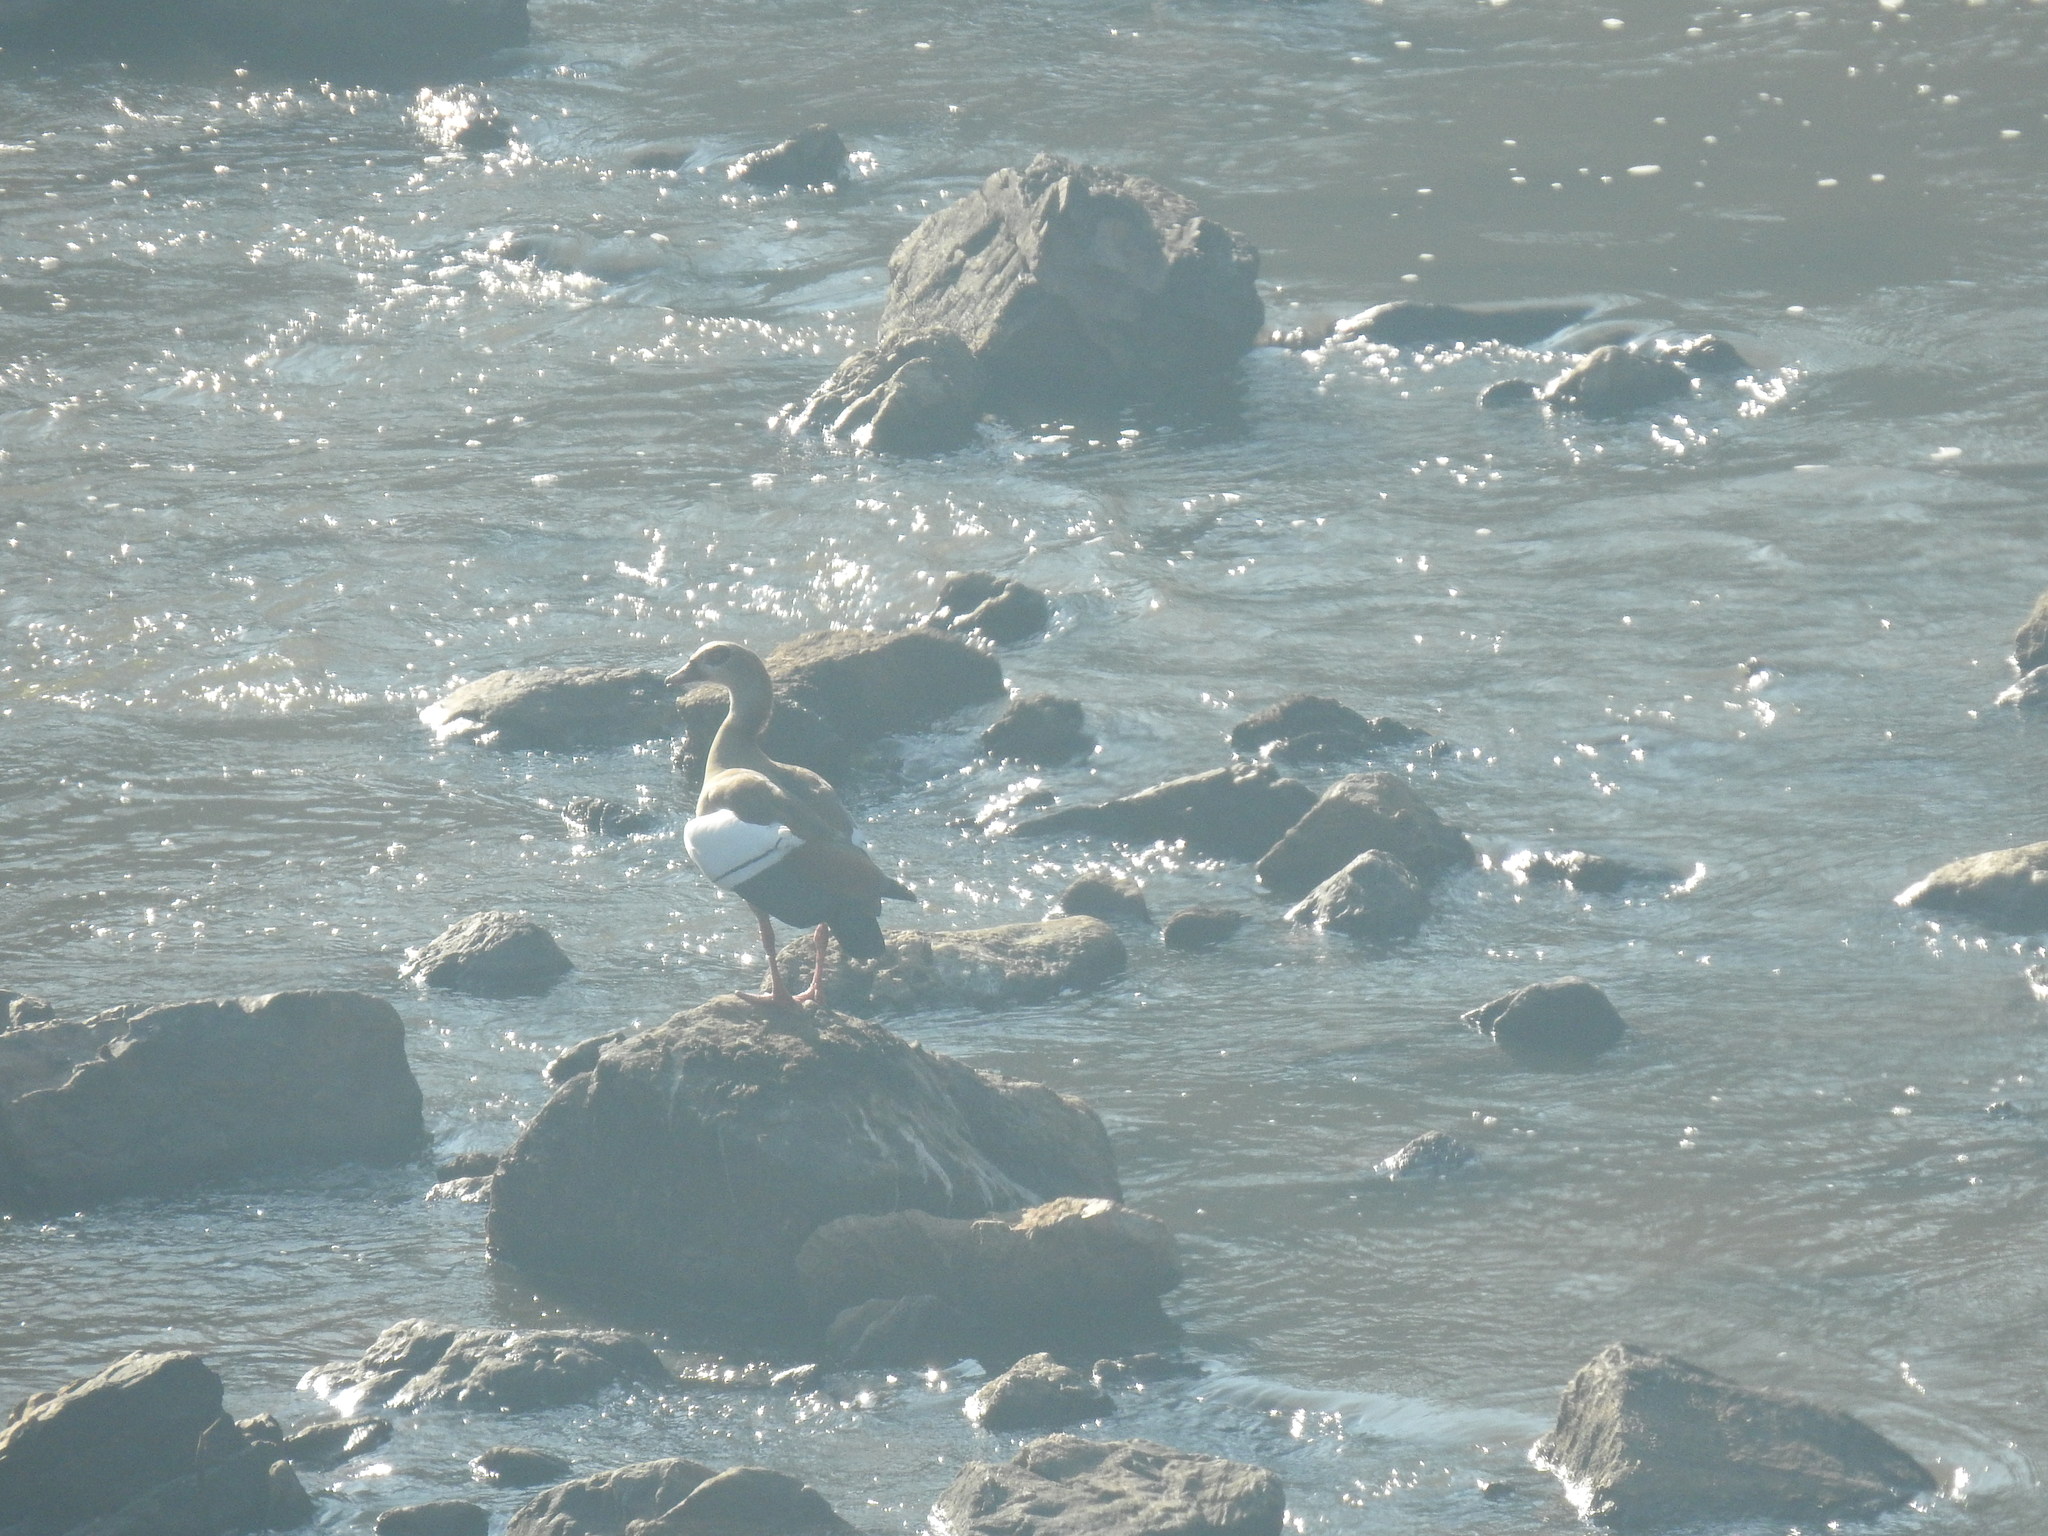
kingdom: Animalia
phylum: Chordata
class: Aves
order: Anseriformes
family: Anatidae
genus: Alopochen
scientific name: Alopochen aegyptiaca
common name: Egyptian goose
